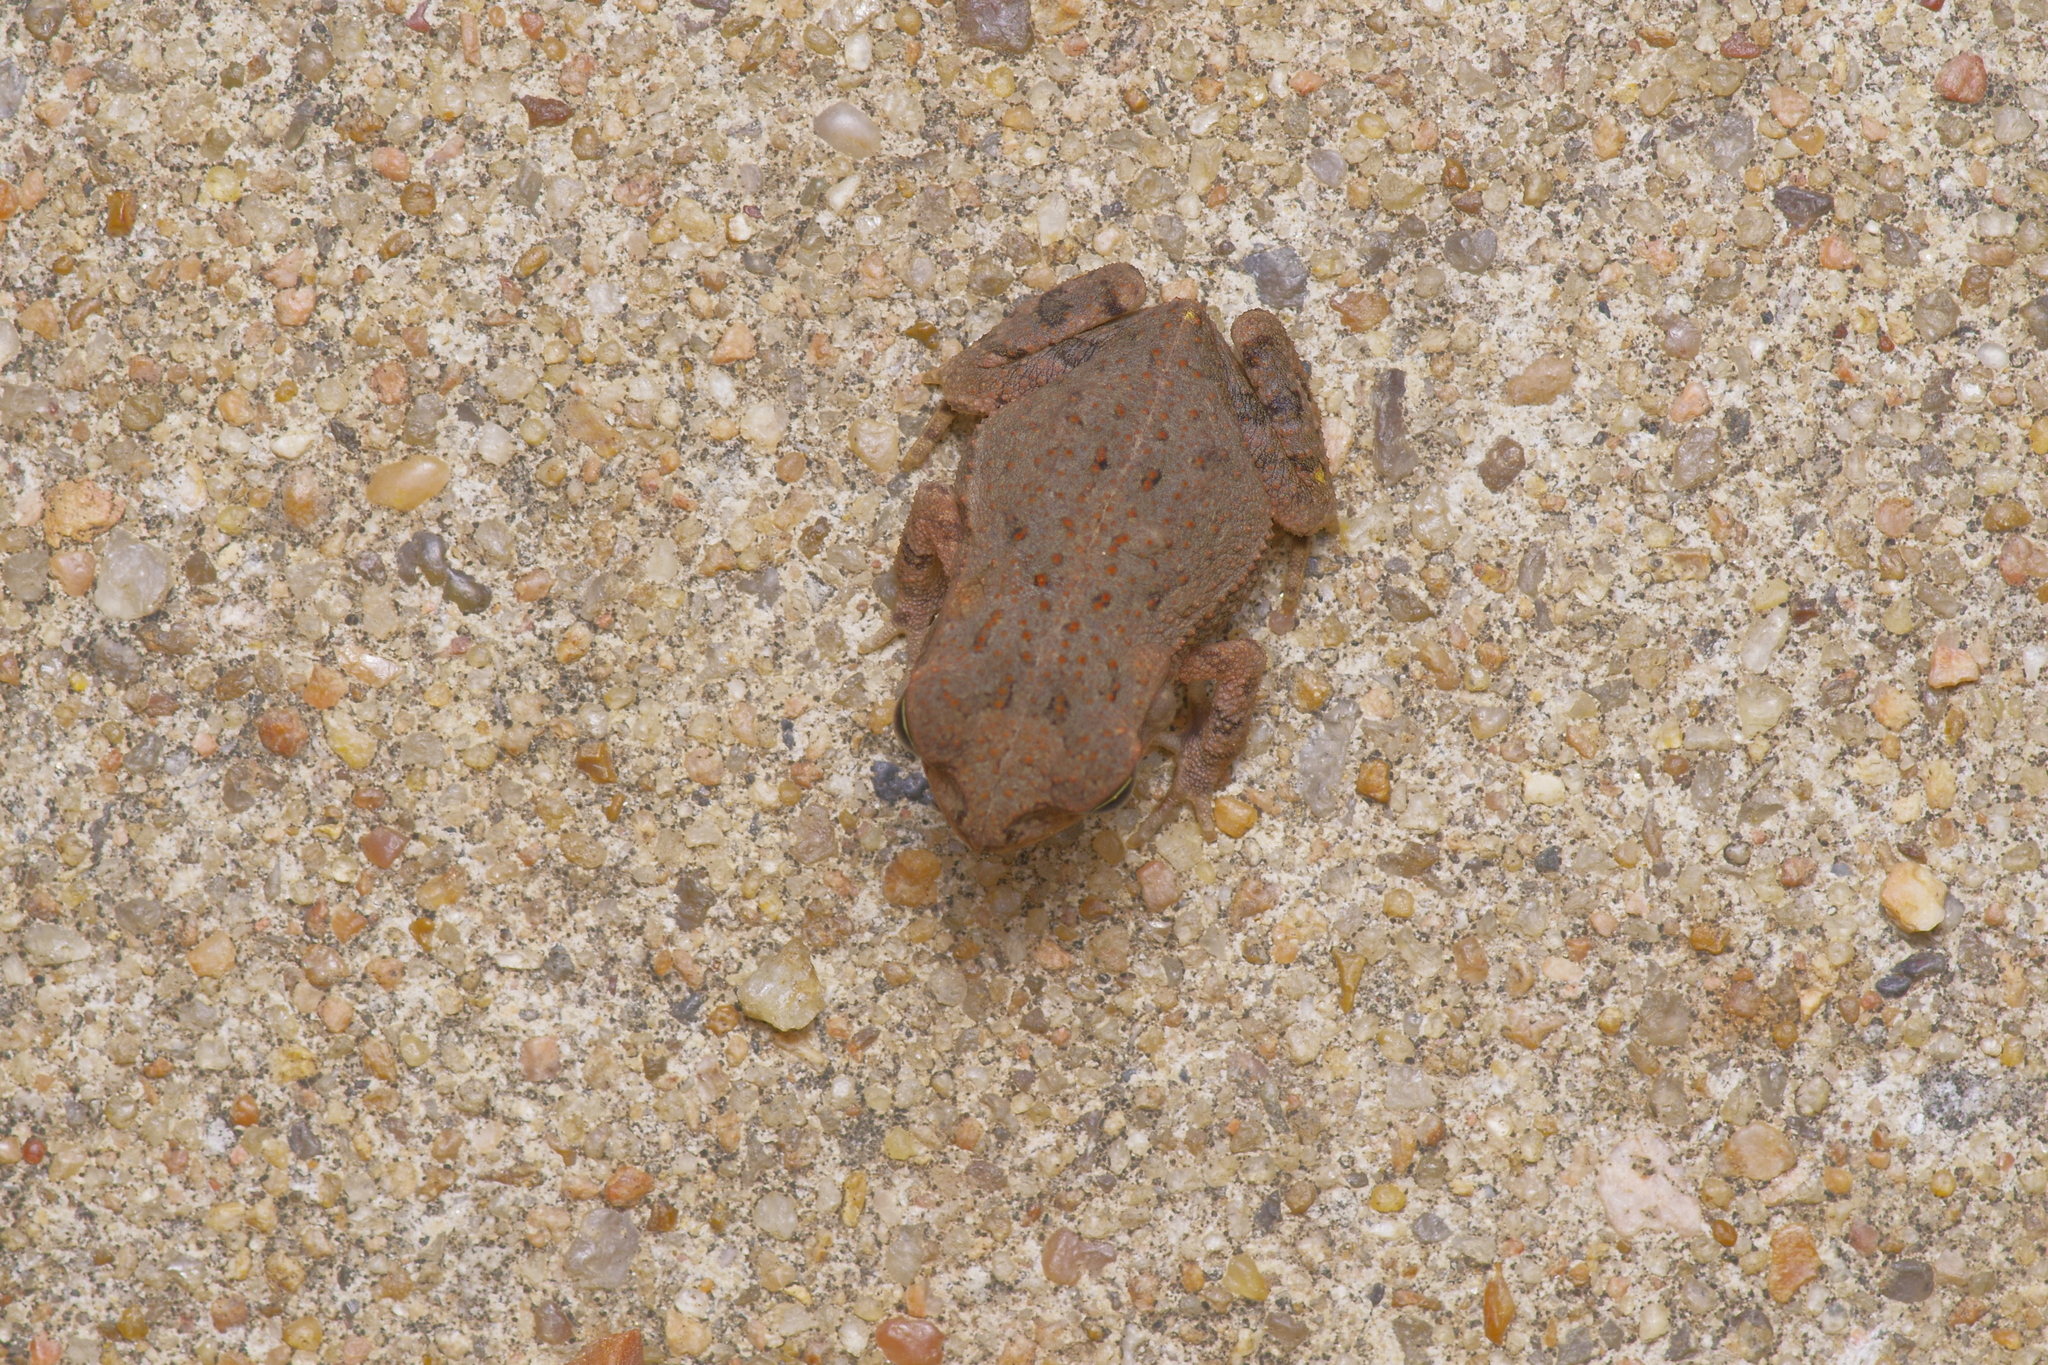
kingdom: Animalia
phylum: Chordata
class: Amphibia
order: Anura
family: Bufonidae
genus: Incilius
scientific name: Incilius nebulifer
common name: Gulf coast toad
